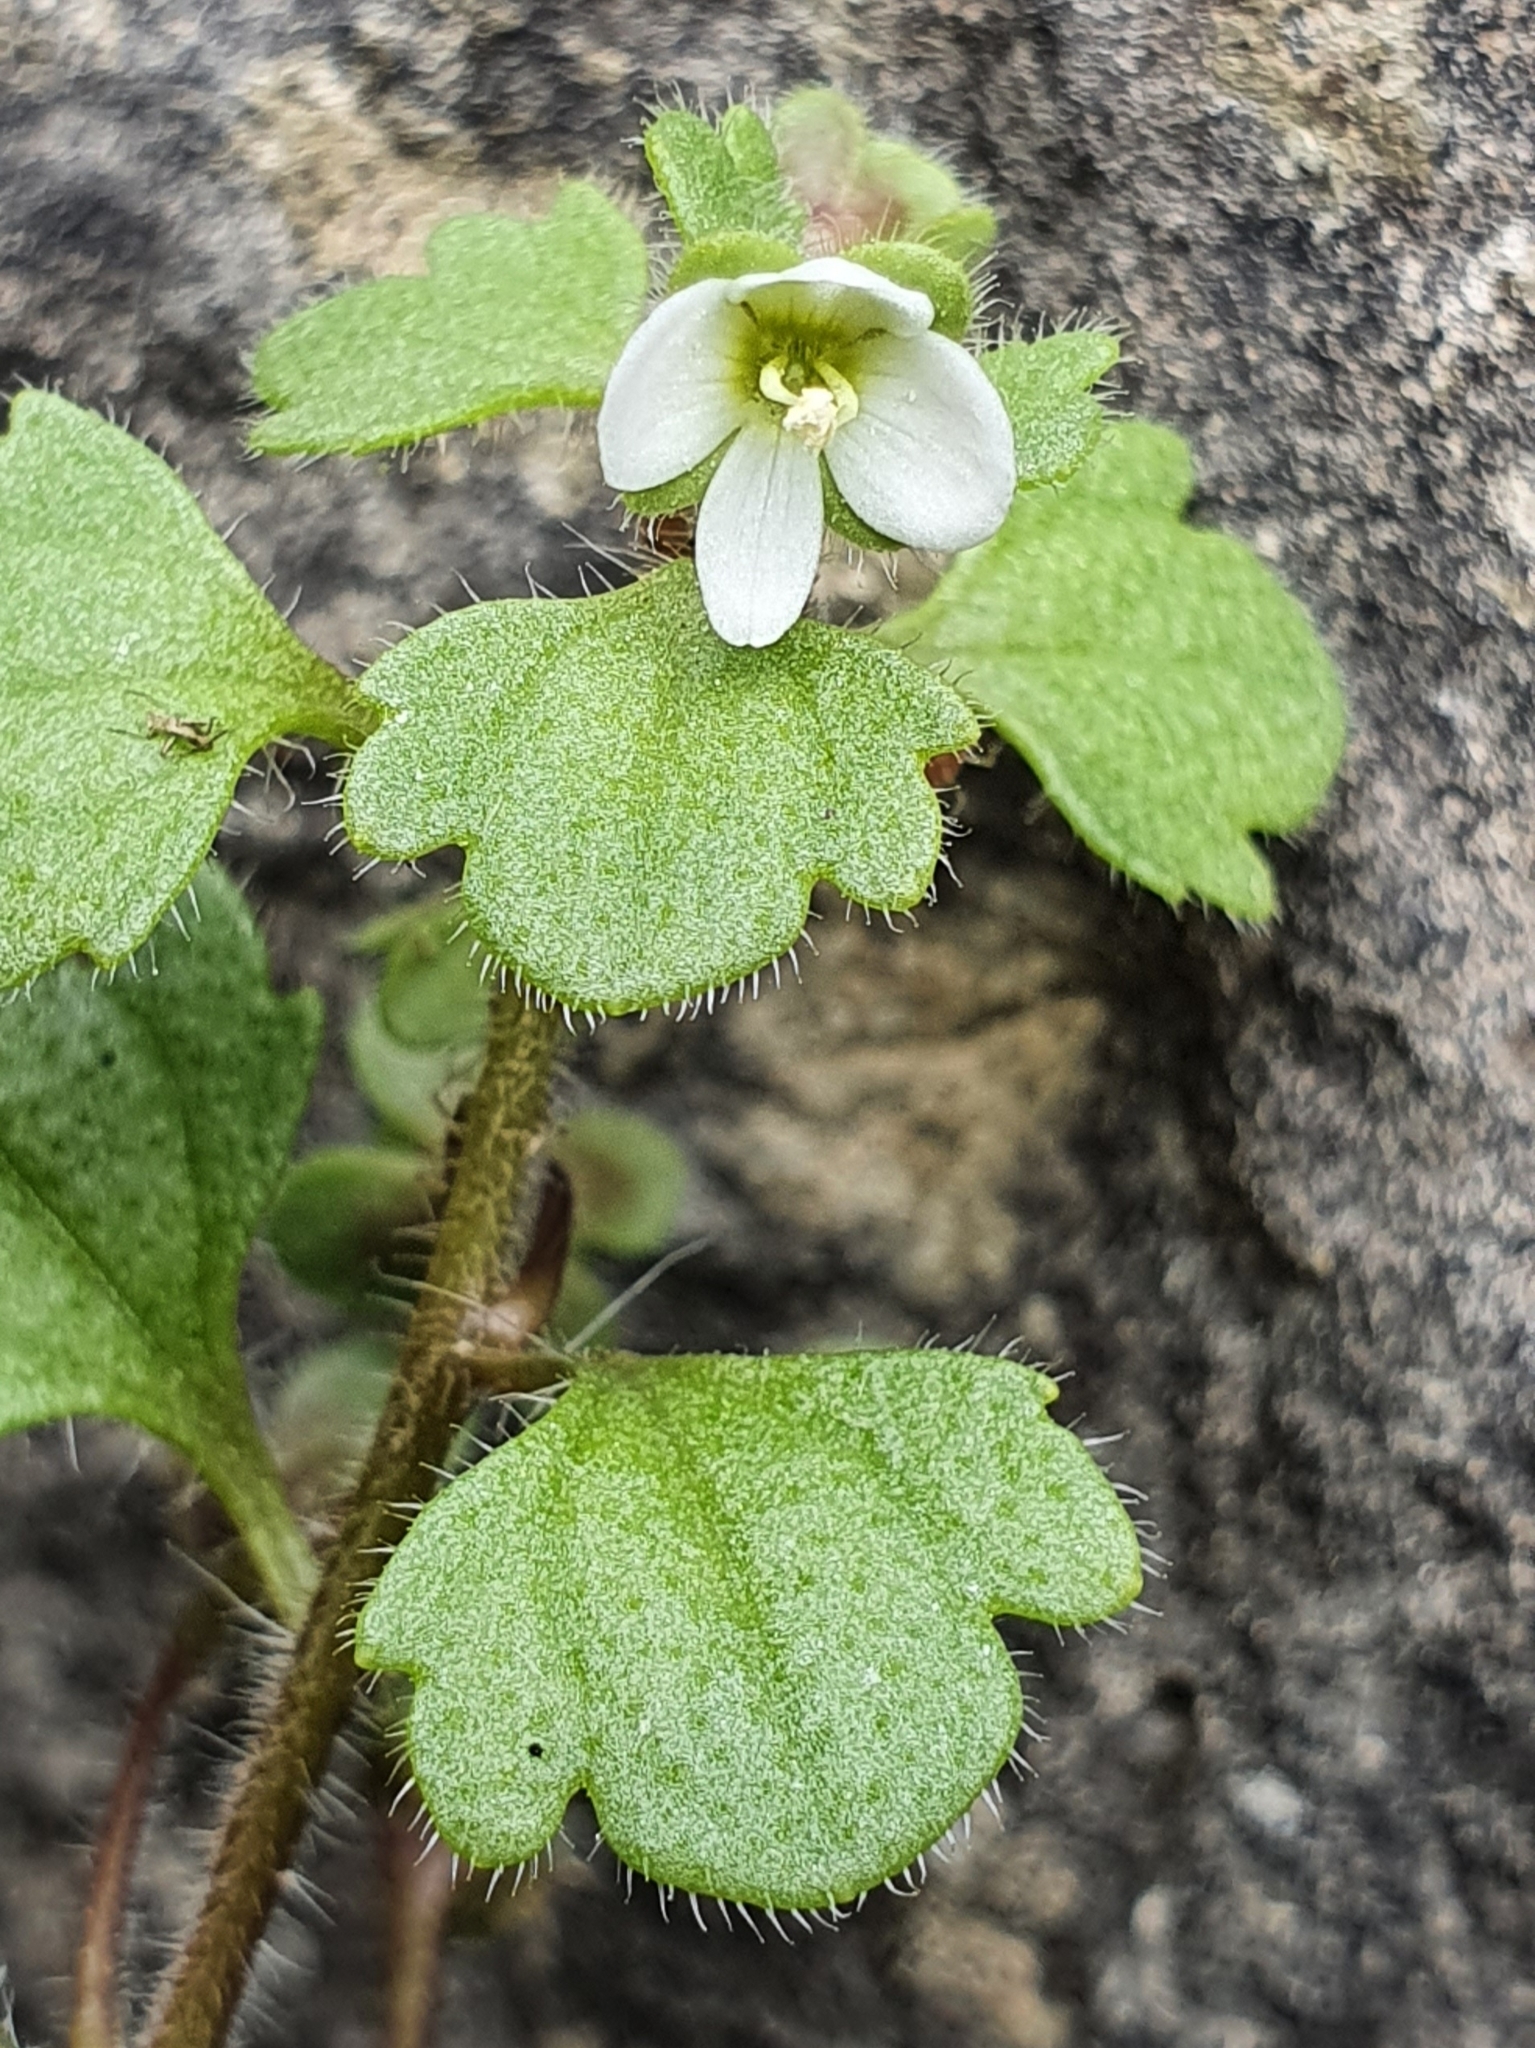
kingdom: Plantae
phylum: Tracheophyta
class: Magnoliopsida
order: Lamiales
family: Plantaginaceae
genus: Veronica
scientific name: Veronica cymbalaria
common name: Pale speedwell
